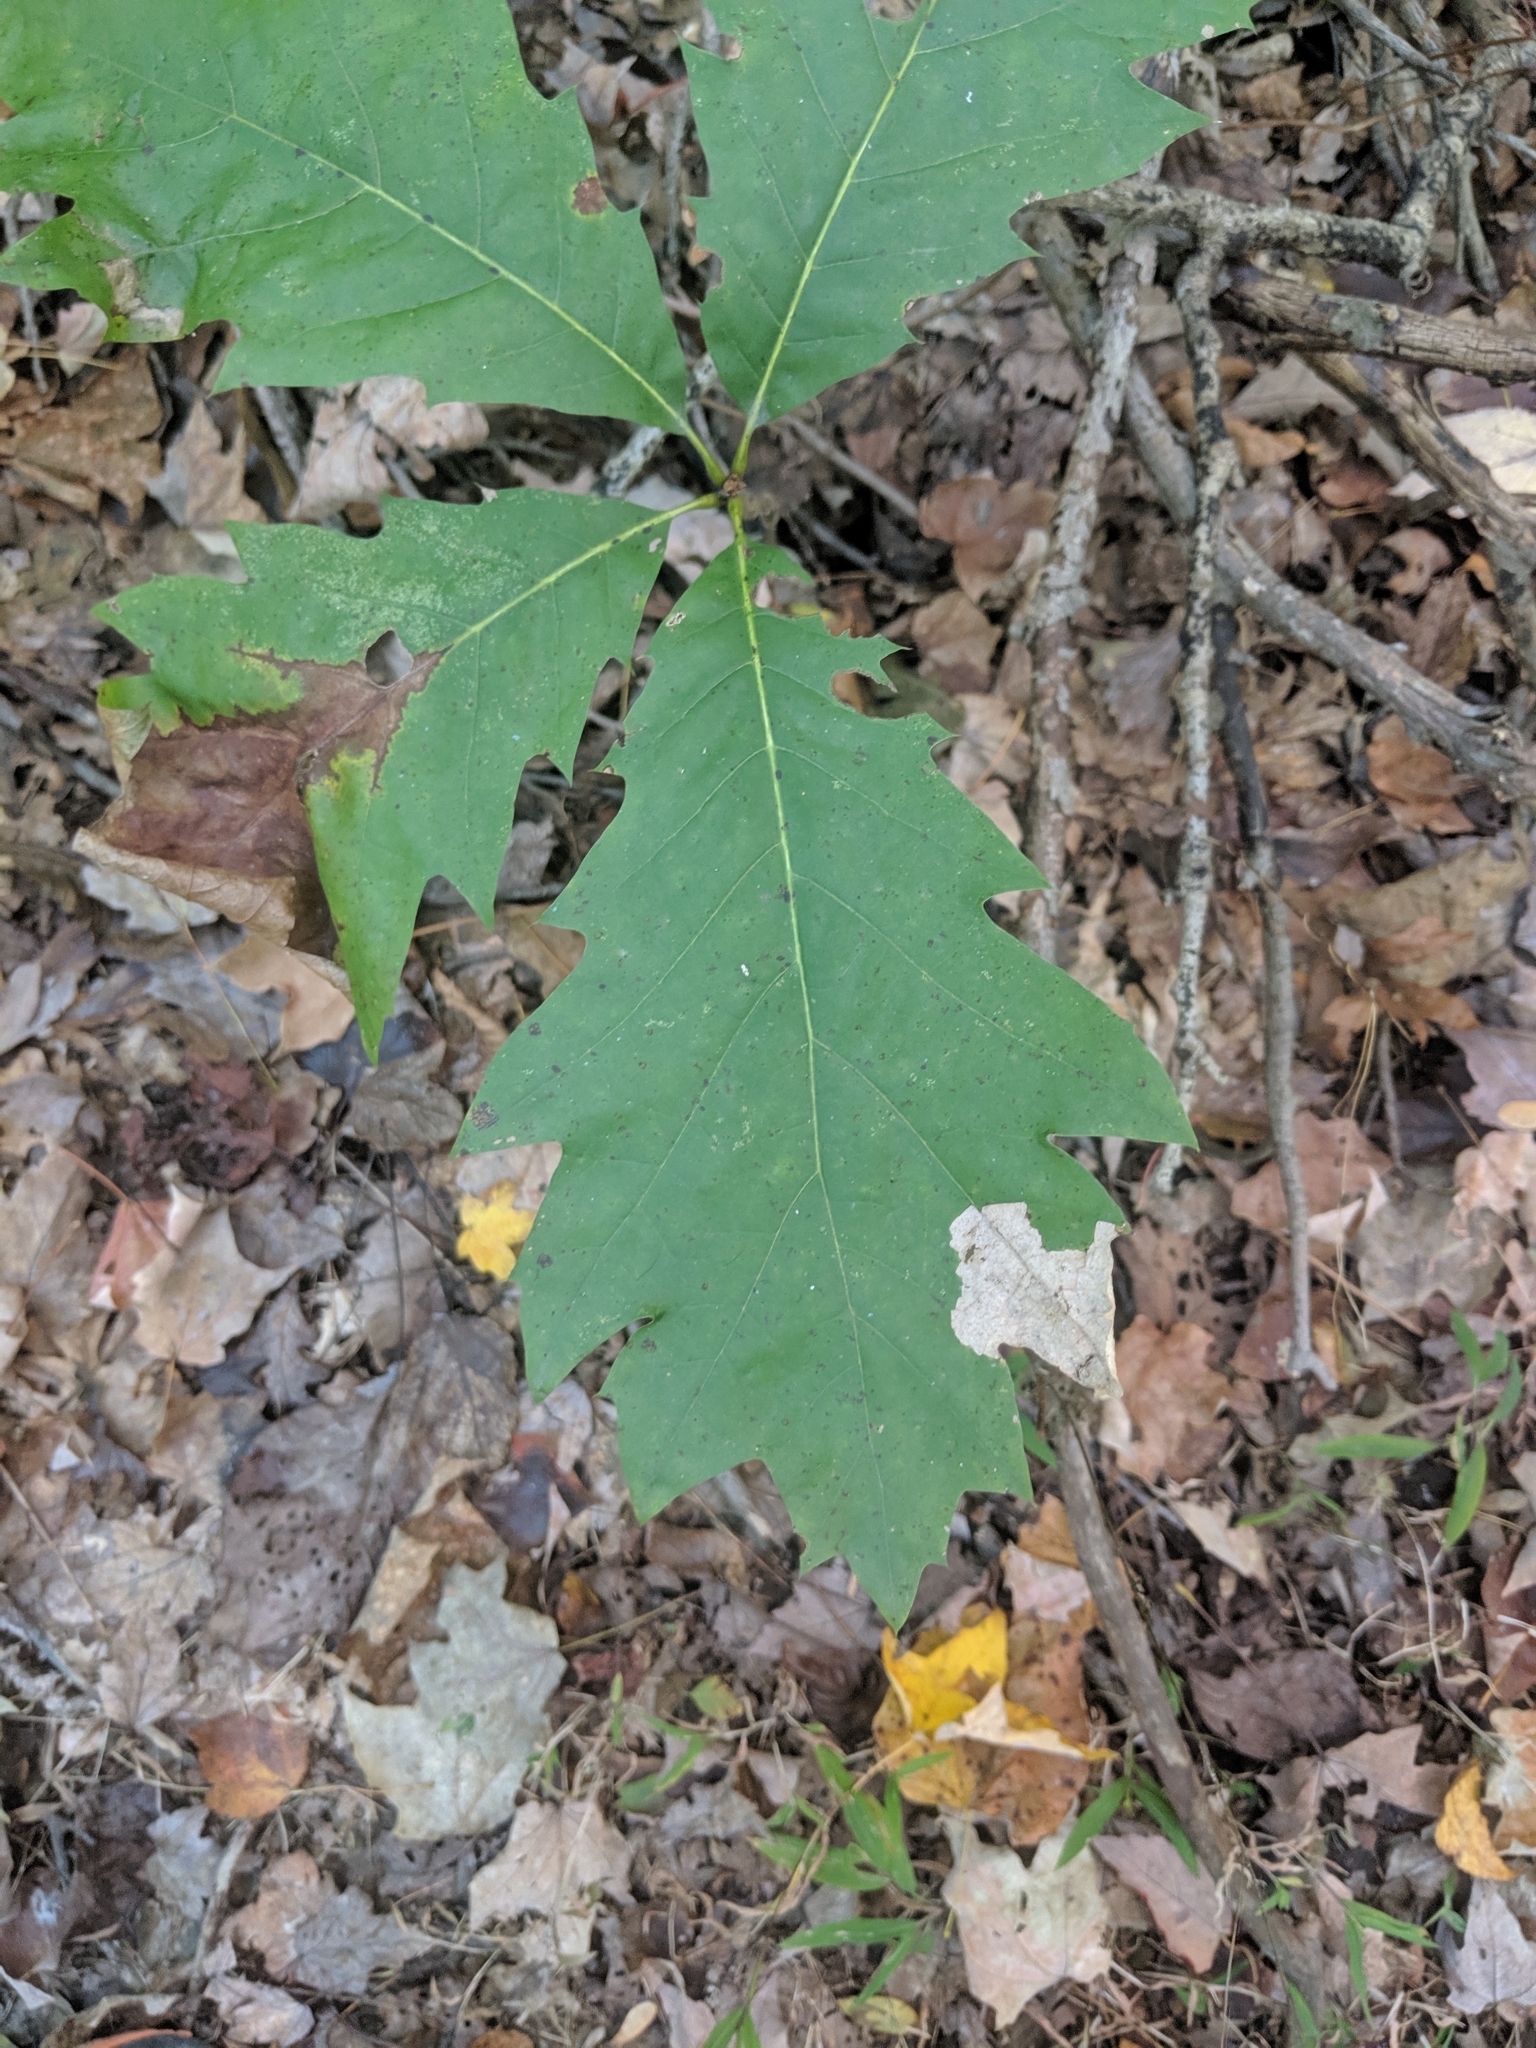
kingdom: Plantae
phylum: Tracheophyta
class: Magnoliopsida
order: Fagales
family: Fagaceae
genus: Quercus
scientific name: Quercus rubra
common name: Red oak
